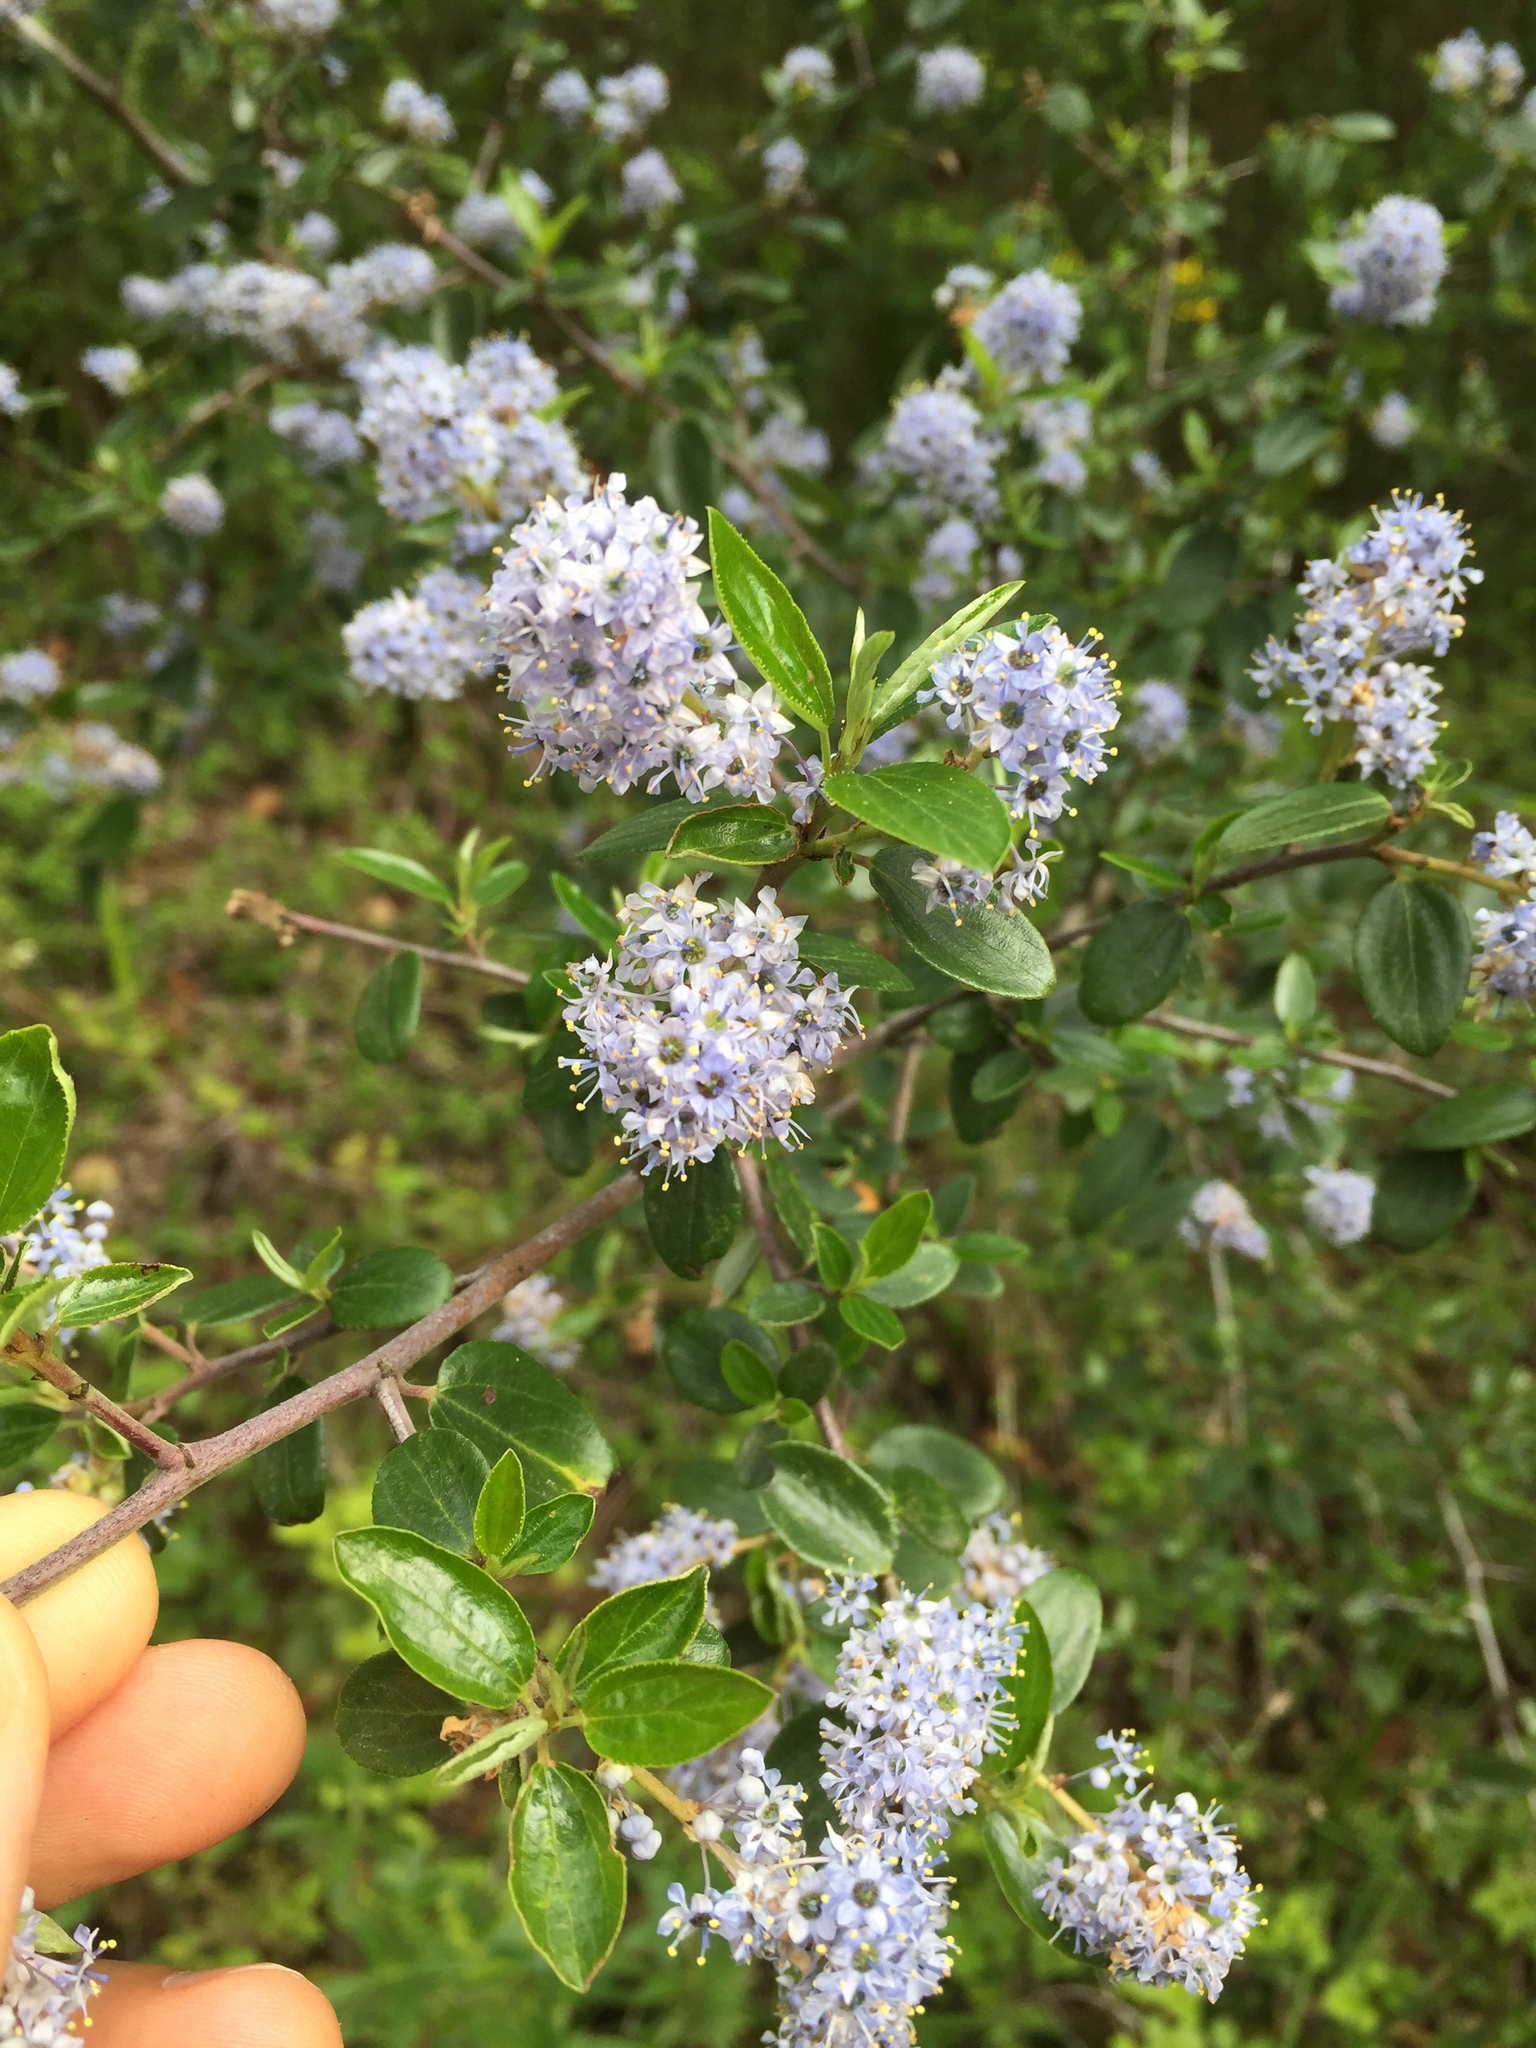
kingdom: Plantae
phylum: Tracheophyta
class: Magnoliopsida
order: Rosales
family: Rhamnaceae
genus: Ceanothus
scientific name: Ceanothus oliganthus
